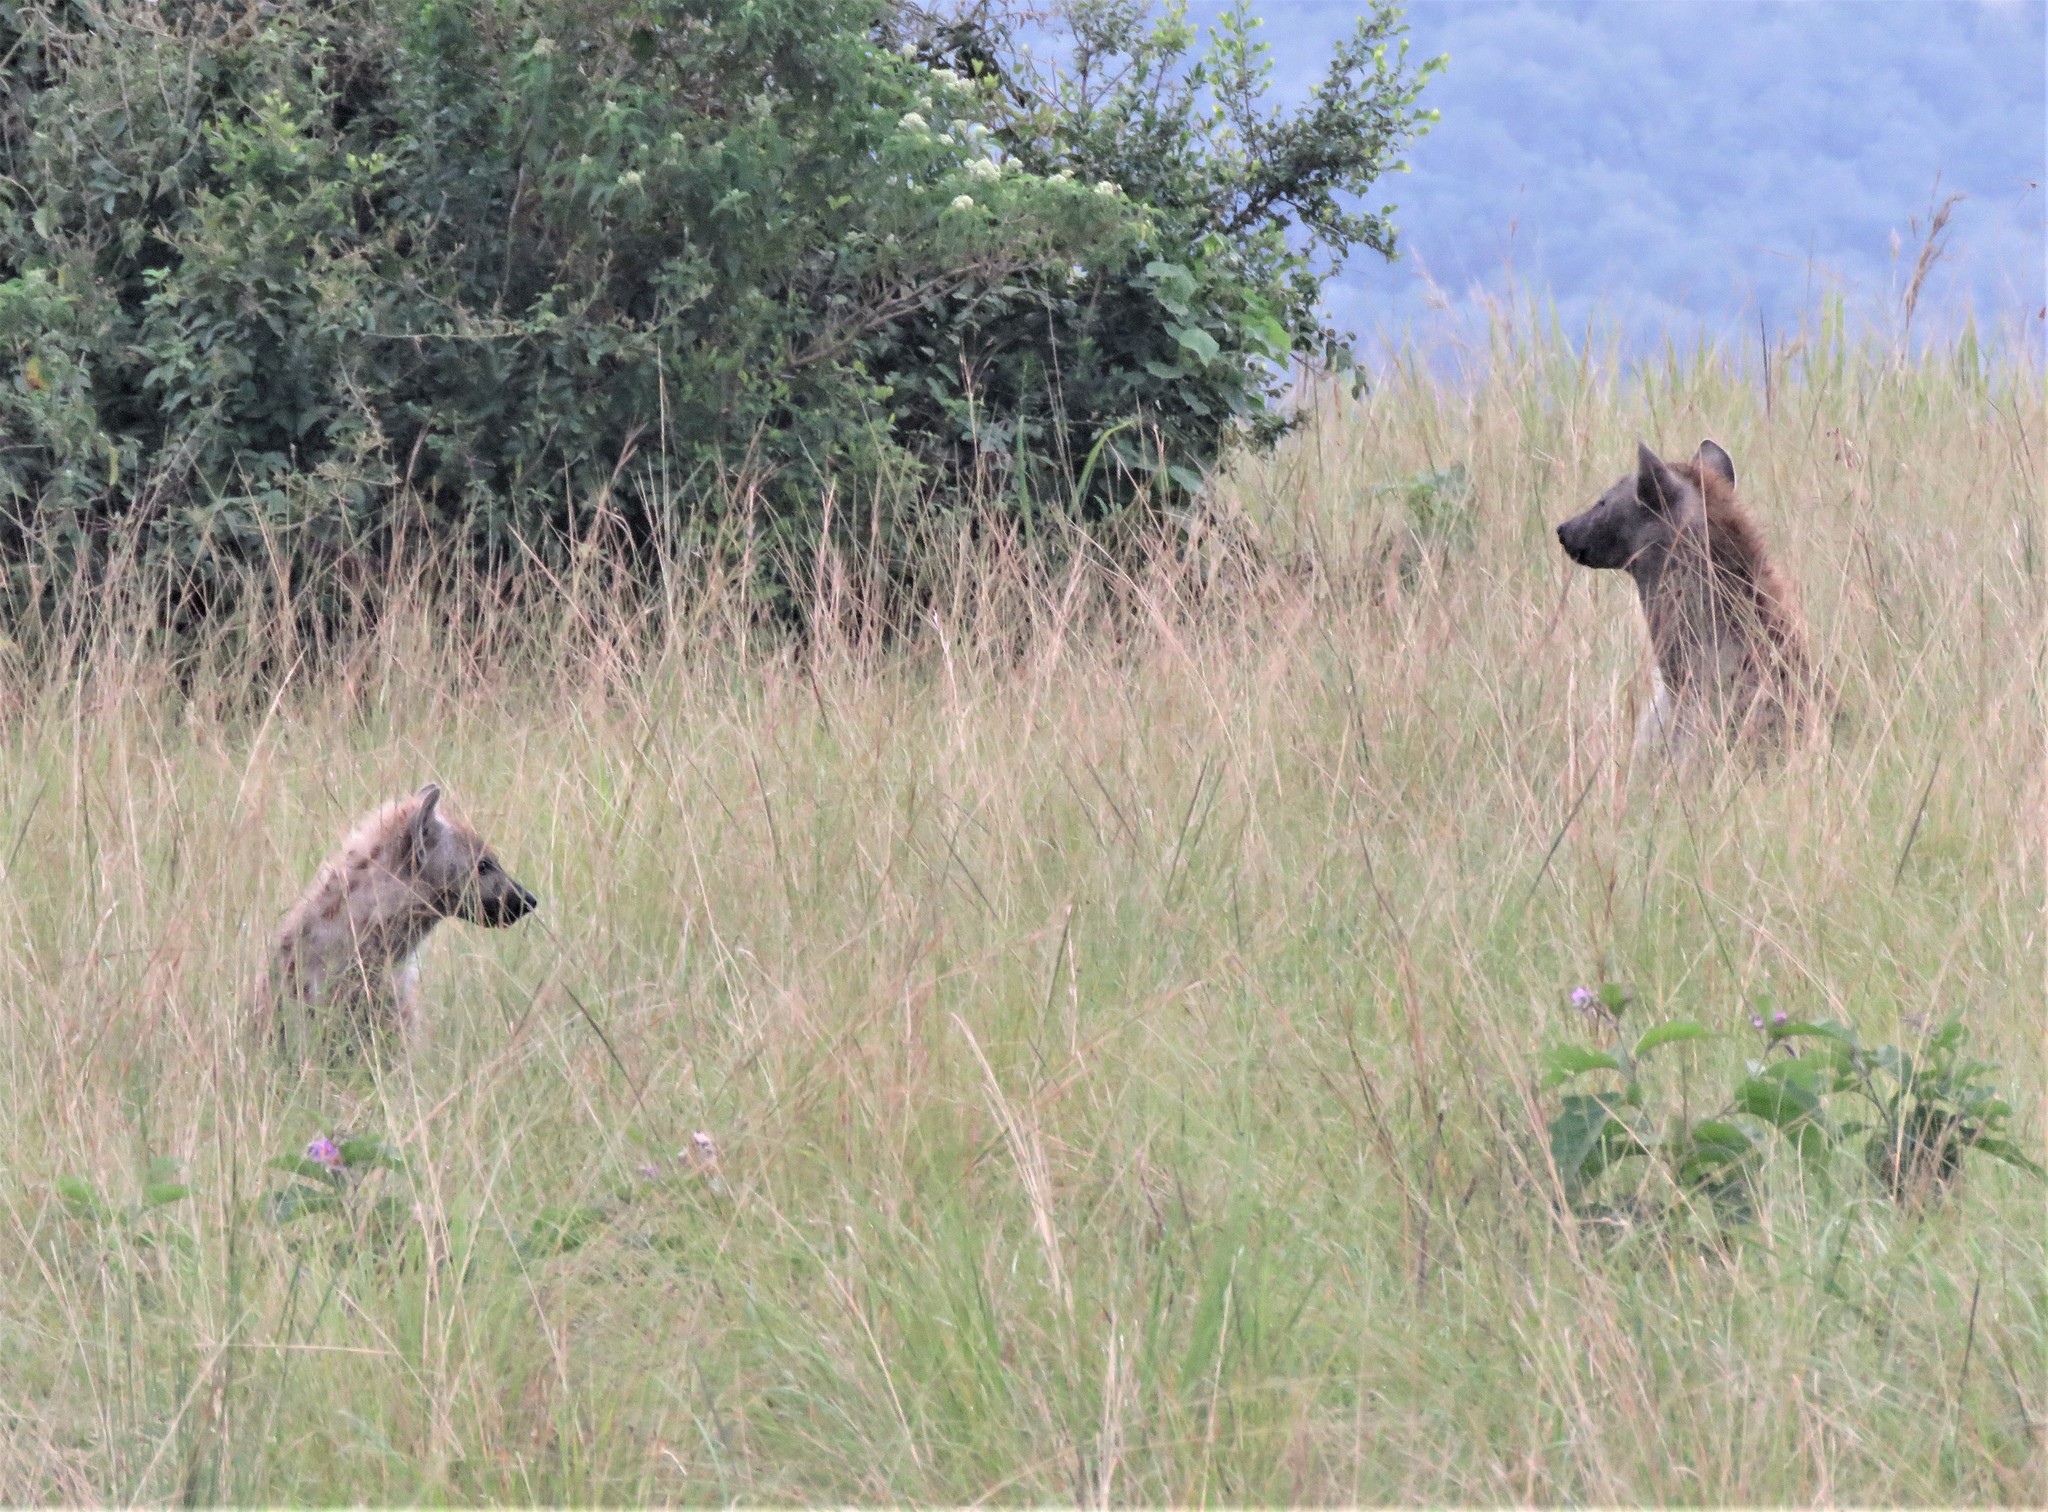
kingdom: Animalia
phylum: Chordata
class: Mammalia
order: Carnivora
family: Hyaenidae
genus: Crocuta
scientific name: Crocuta crocuta
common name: Spotted hyaena
